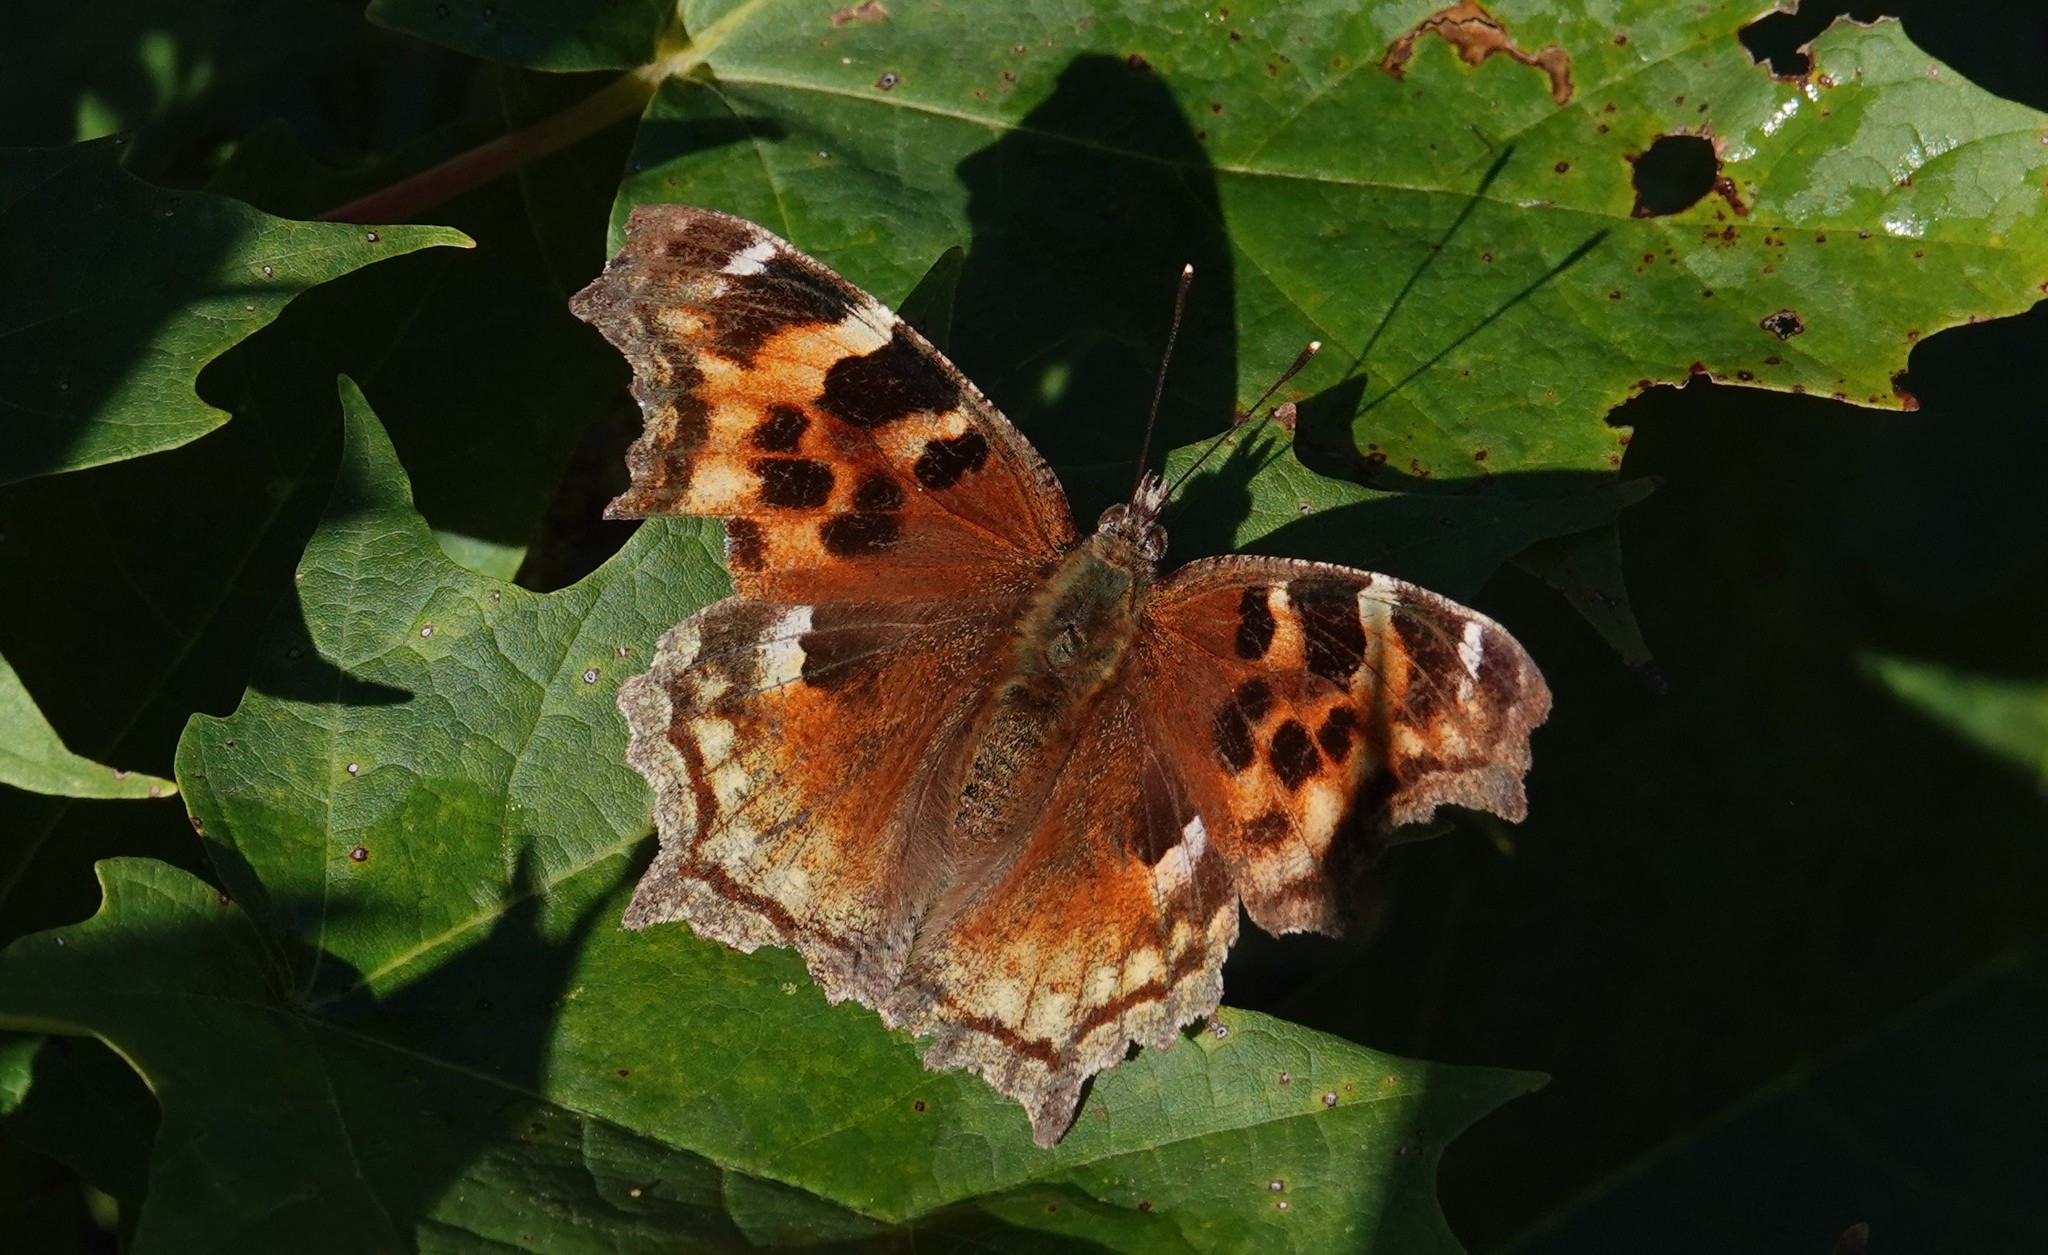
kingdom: Animalia
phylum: Arthropoda
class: Insecta
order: Lepidoptera
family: Nymphalidae
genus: Polygonia
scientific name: Polygonia vaualbum
